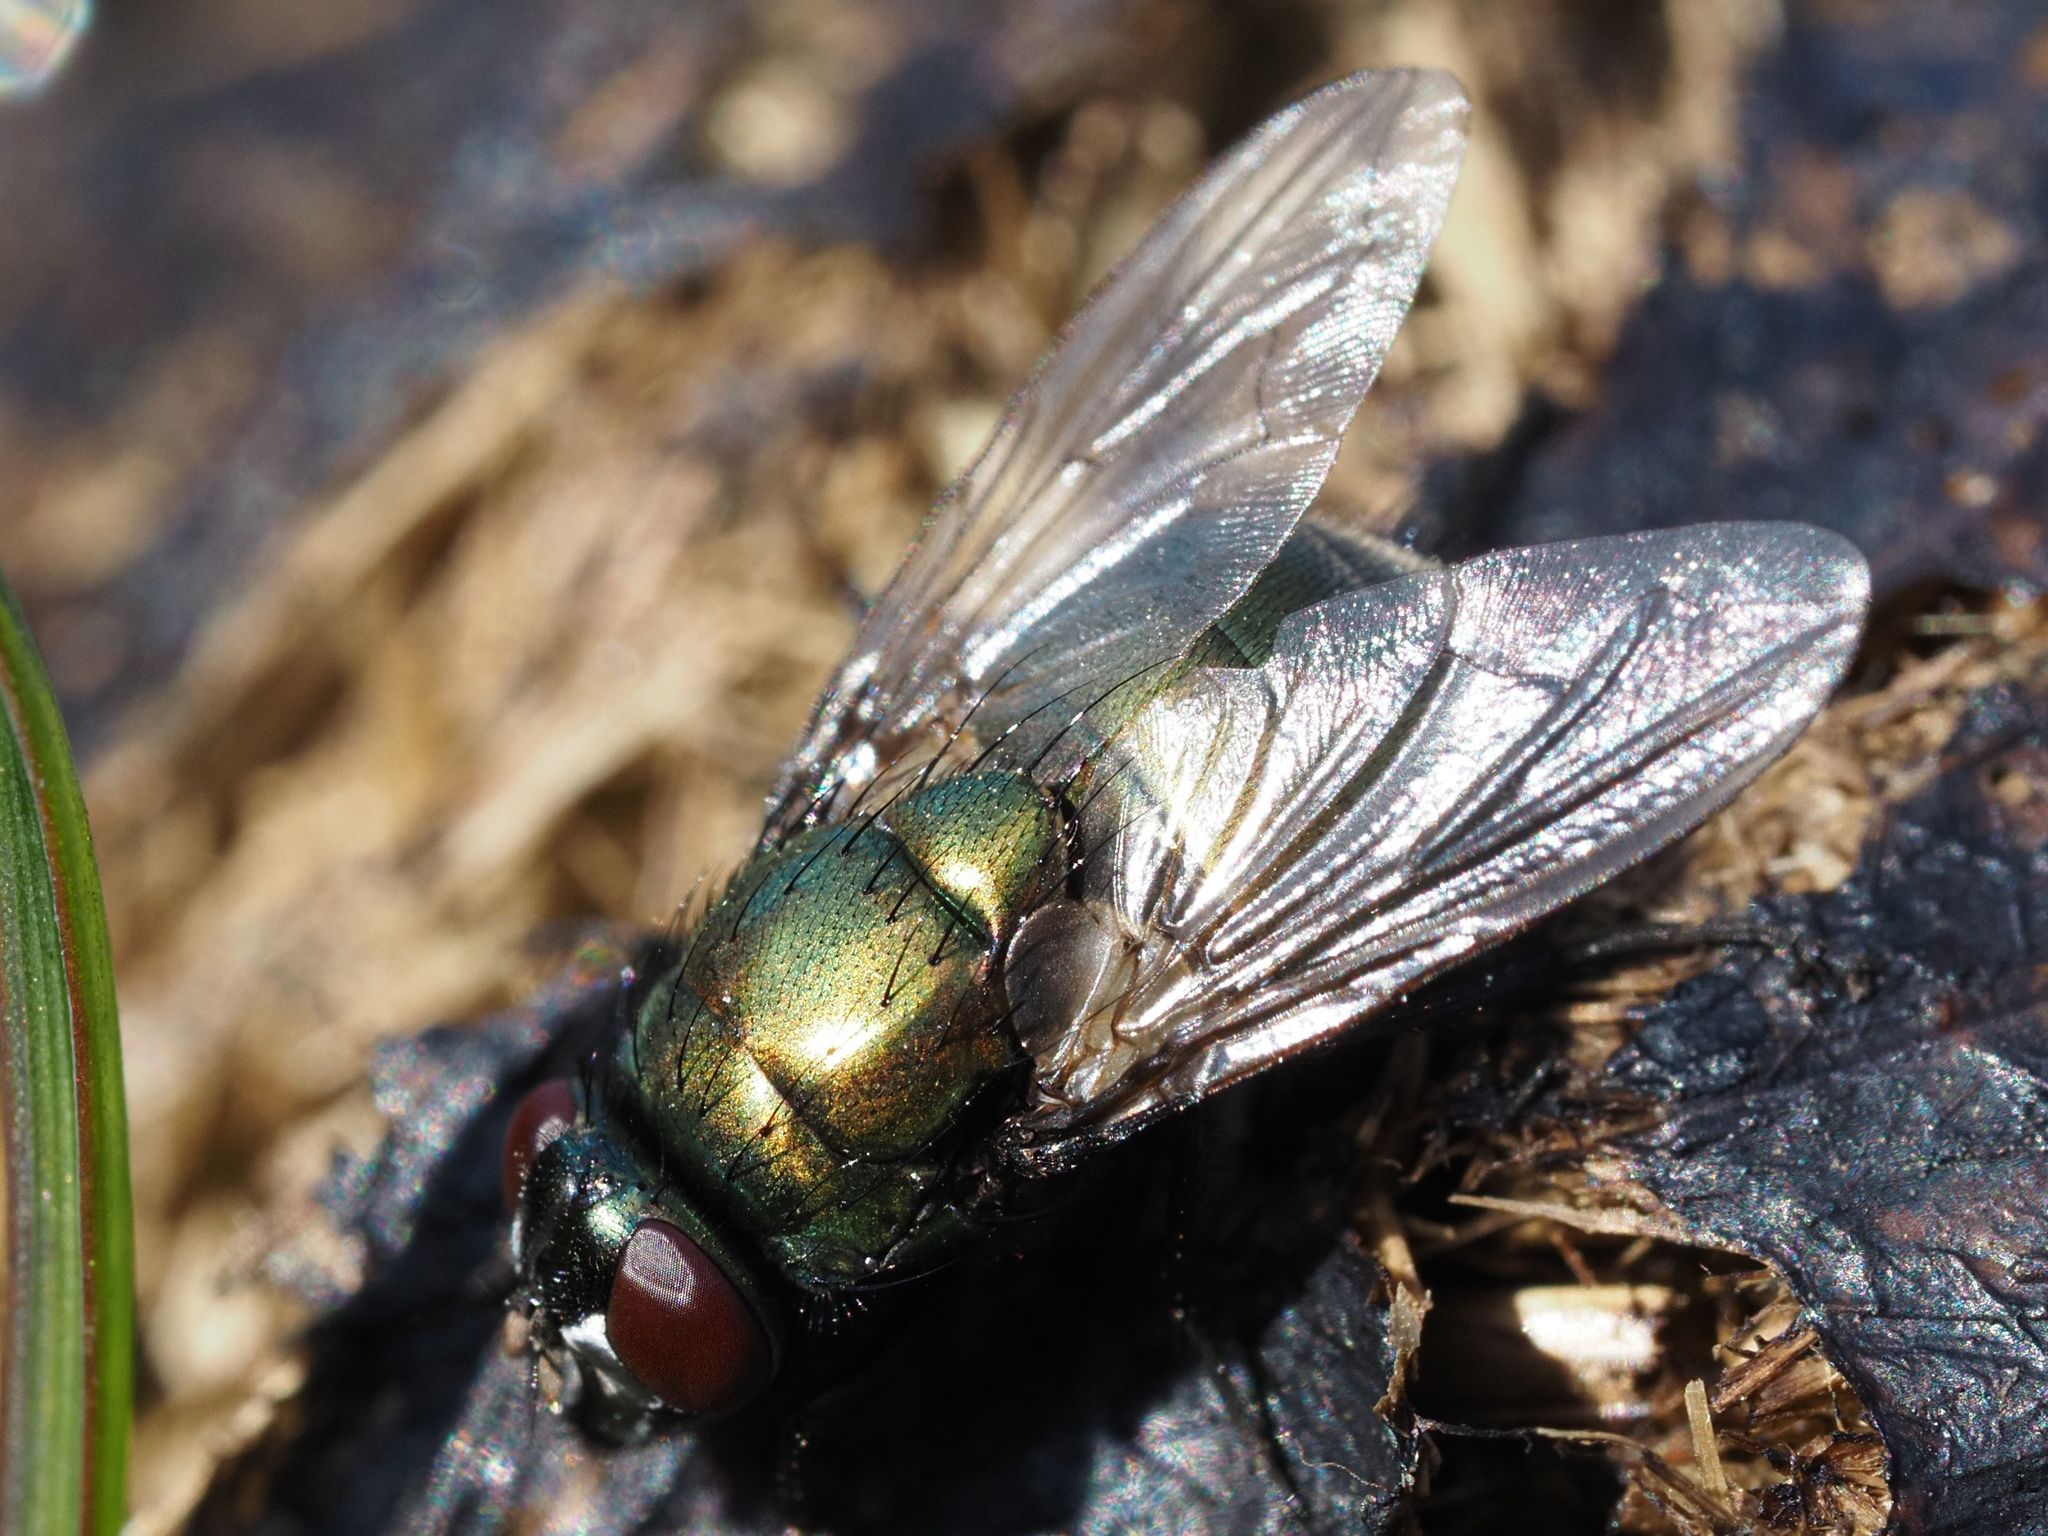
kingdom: Animalia
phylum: Arthropoda
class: Insecta
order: Diptera
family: Muscidae
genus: Neomyia
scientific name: Neomyia cornicina
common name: House fly
